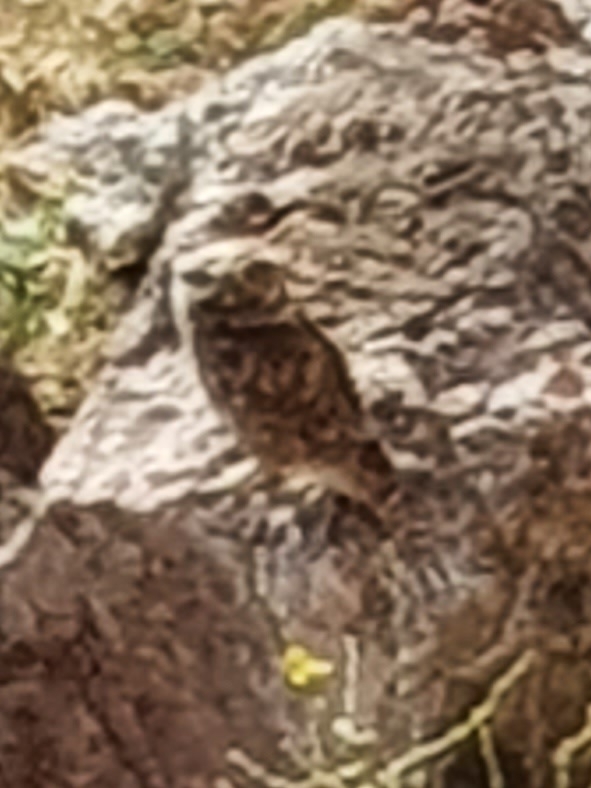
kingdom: Animalia
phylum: Chordata
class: Aves
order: Strigiformes
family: Strigidae
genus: Athene
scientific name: Athene noctua
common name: Little owl
